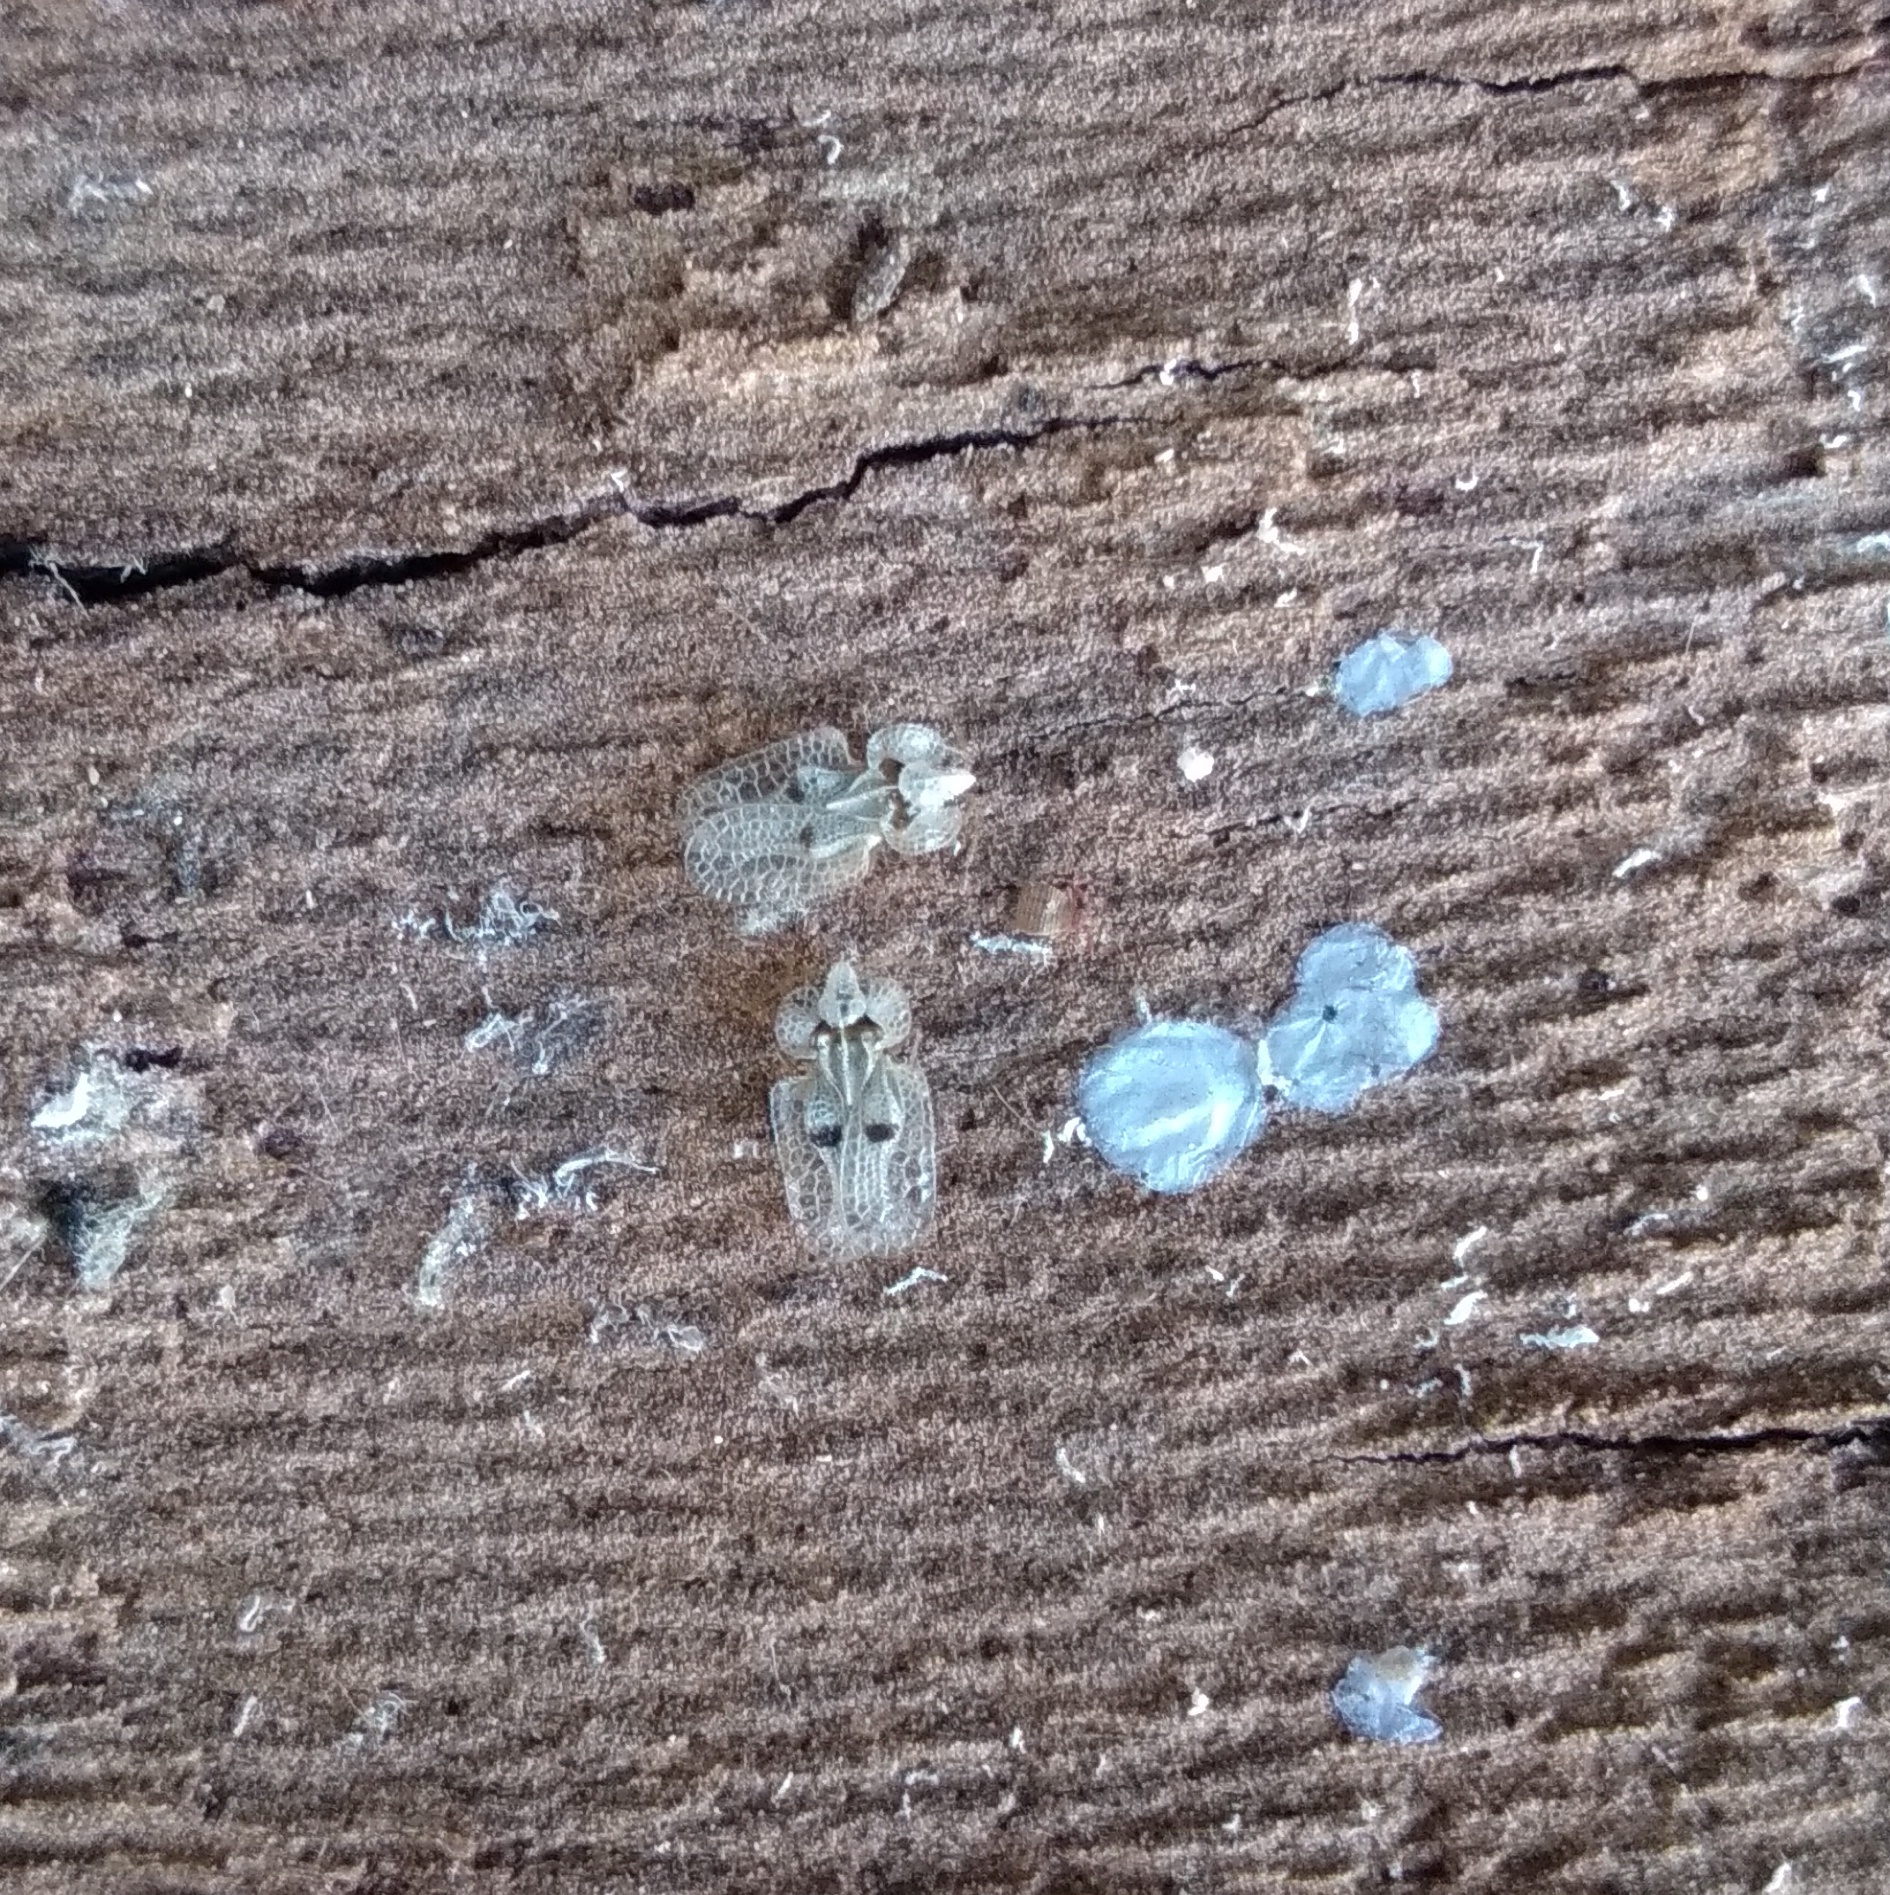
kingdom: Animalia
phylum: Arthropoda
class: Insecta
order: Hemiptera
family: Tingidae
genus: Corythucha
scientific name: Corythucha ciliata
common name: Sycamore lace bug
